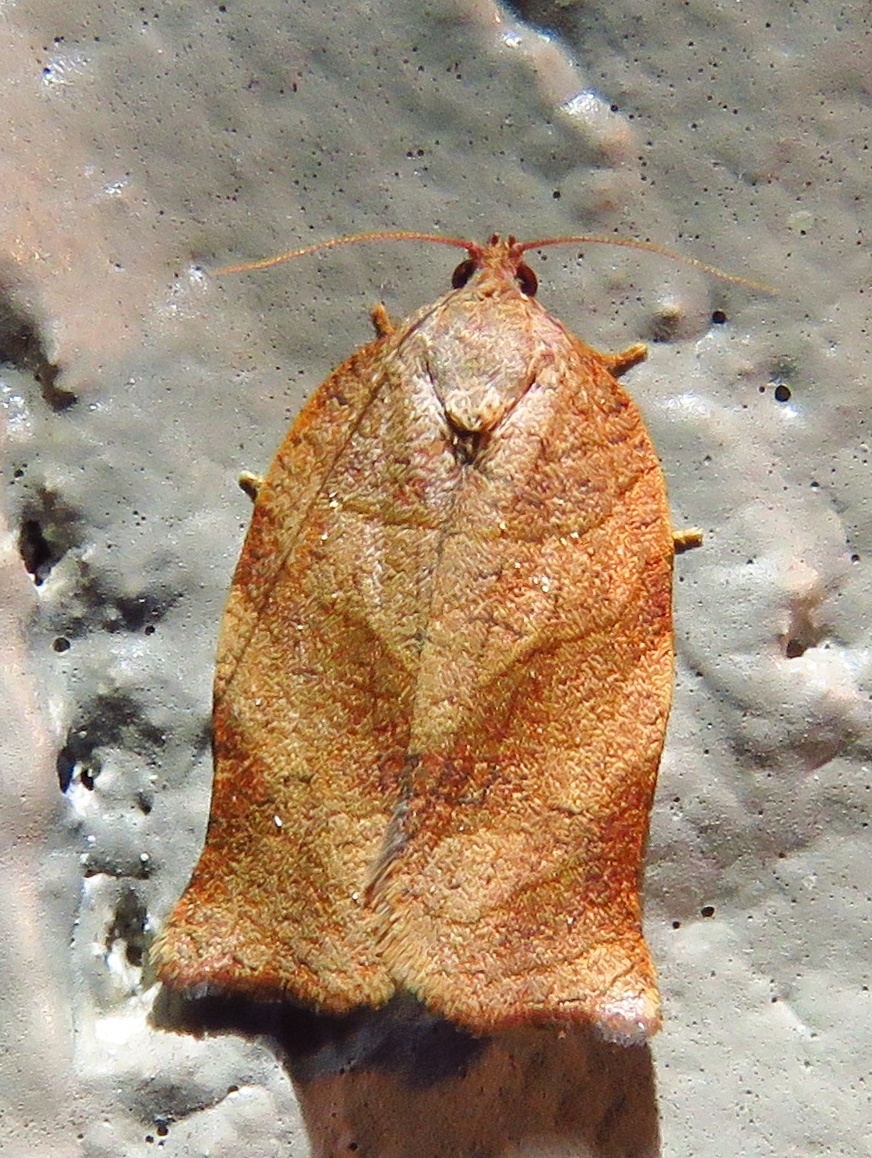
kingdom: Animalia
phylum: Arthropoda
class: Insecta
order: Lepidoptera
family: Tortricidae
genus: Choristoneura
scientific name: Choristoneura rosaceana
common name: Oblique-banded leafroller moth
